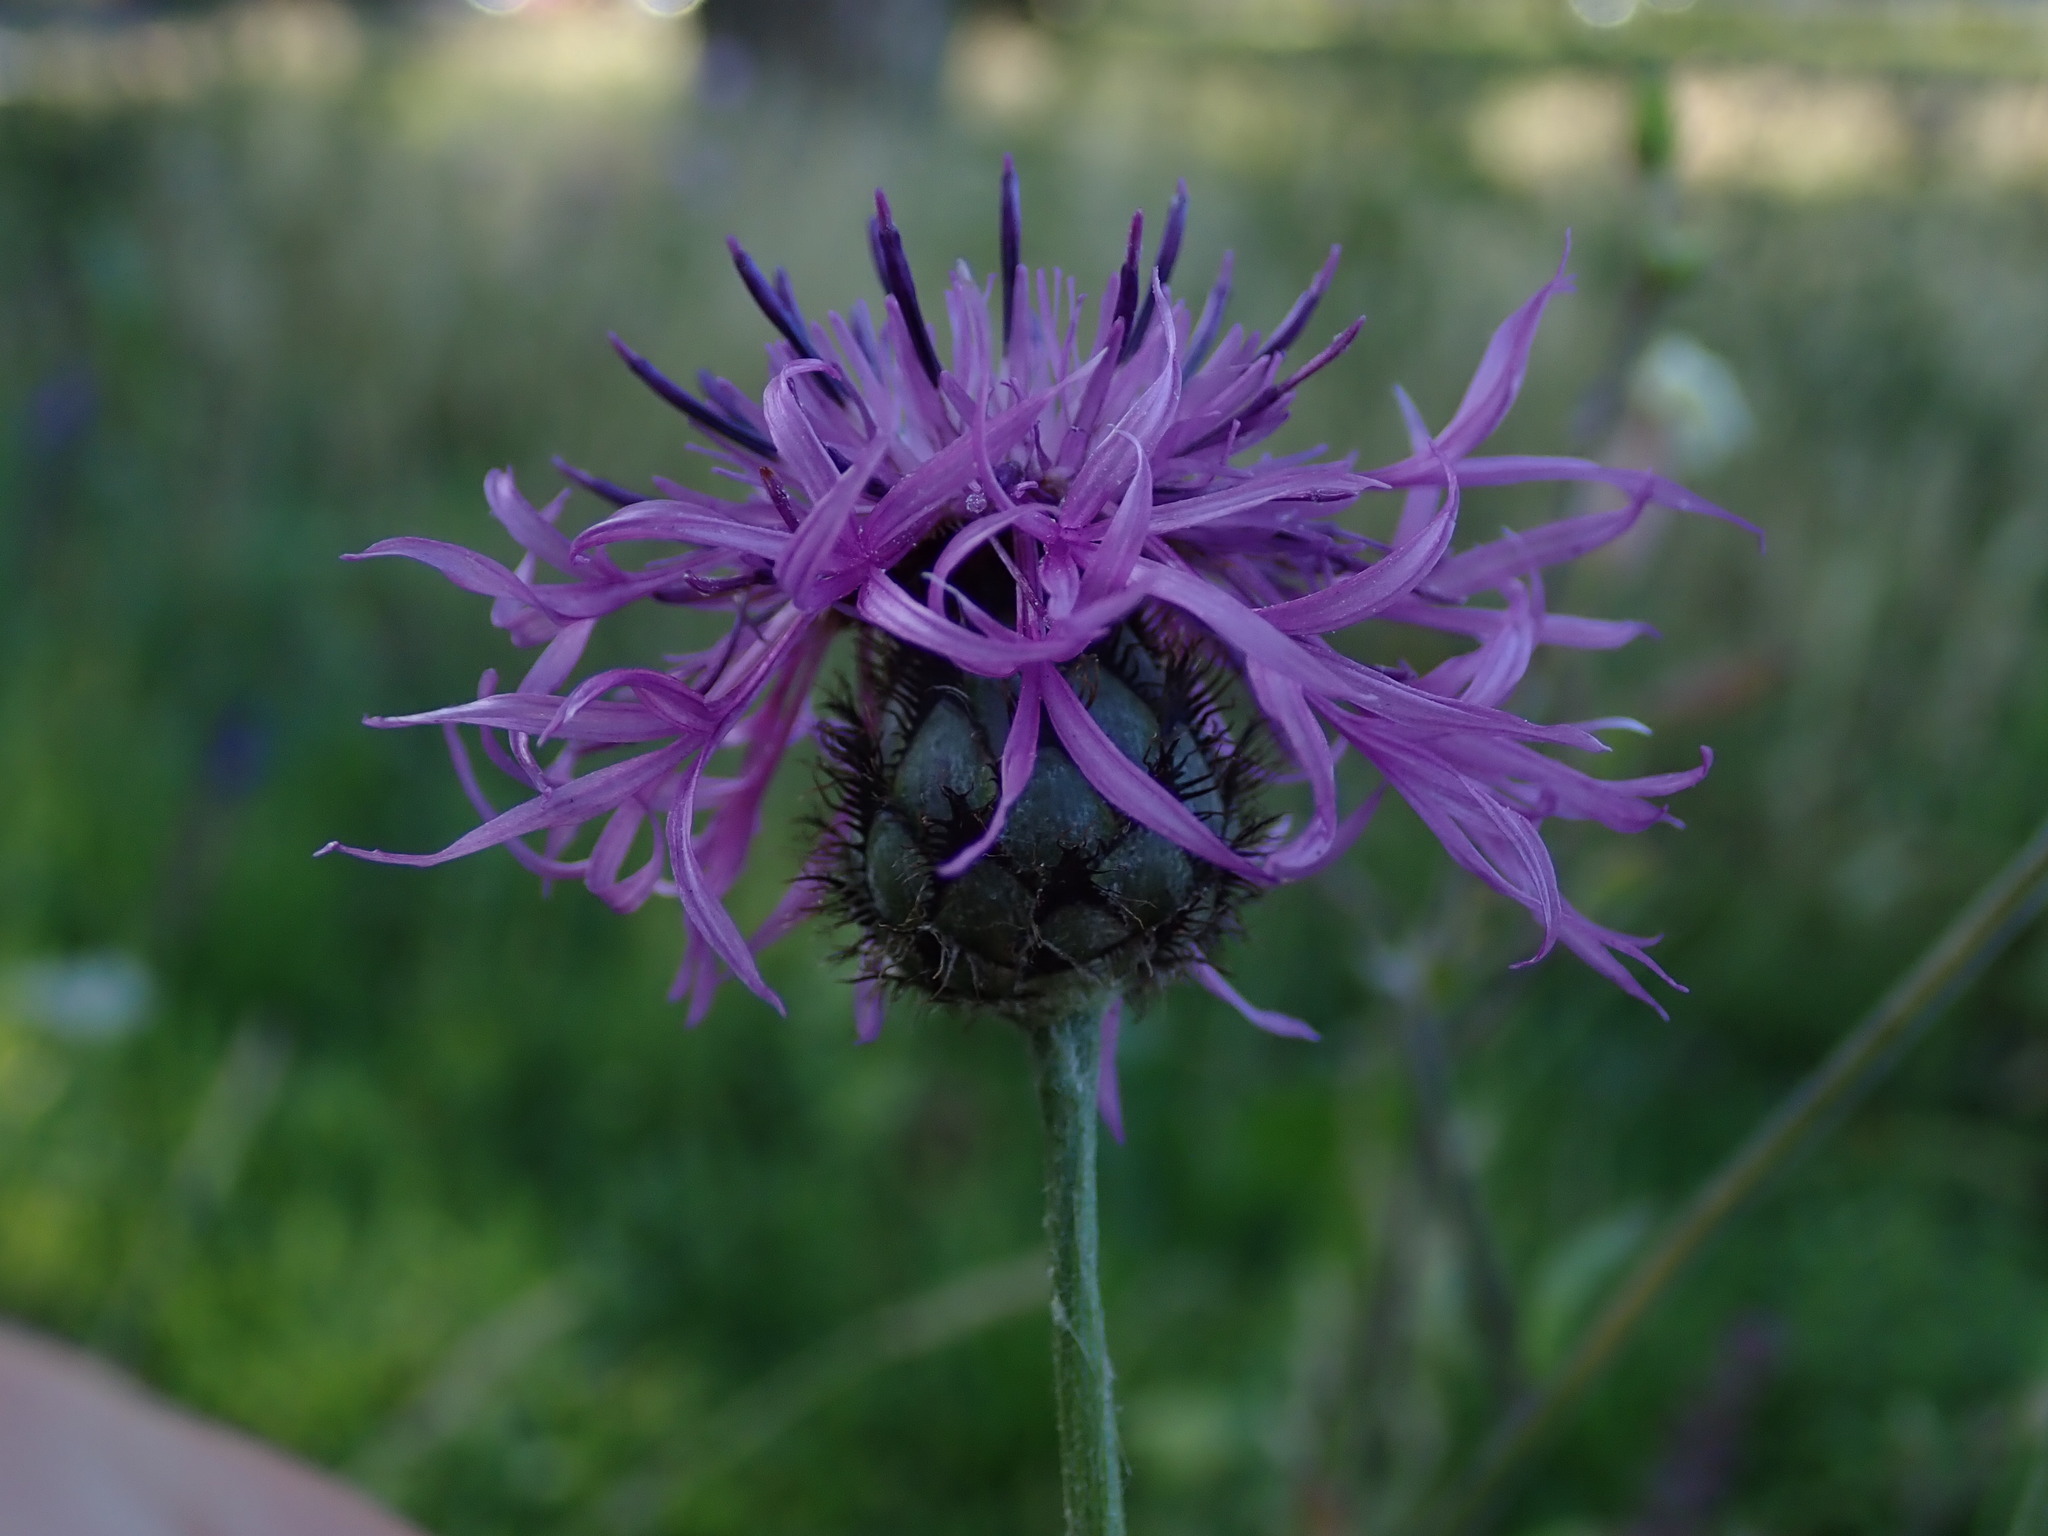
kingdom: Plantae
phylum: Tracheophyta
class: Magnoliopsida
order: Asterales
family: Asteraceae
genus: Centaurea
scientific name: Centaurea scabiosa
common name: Greater knapweed
